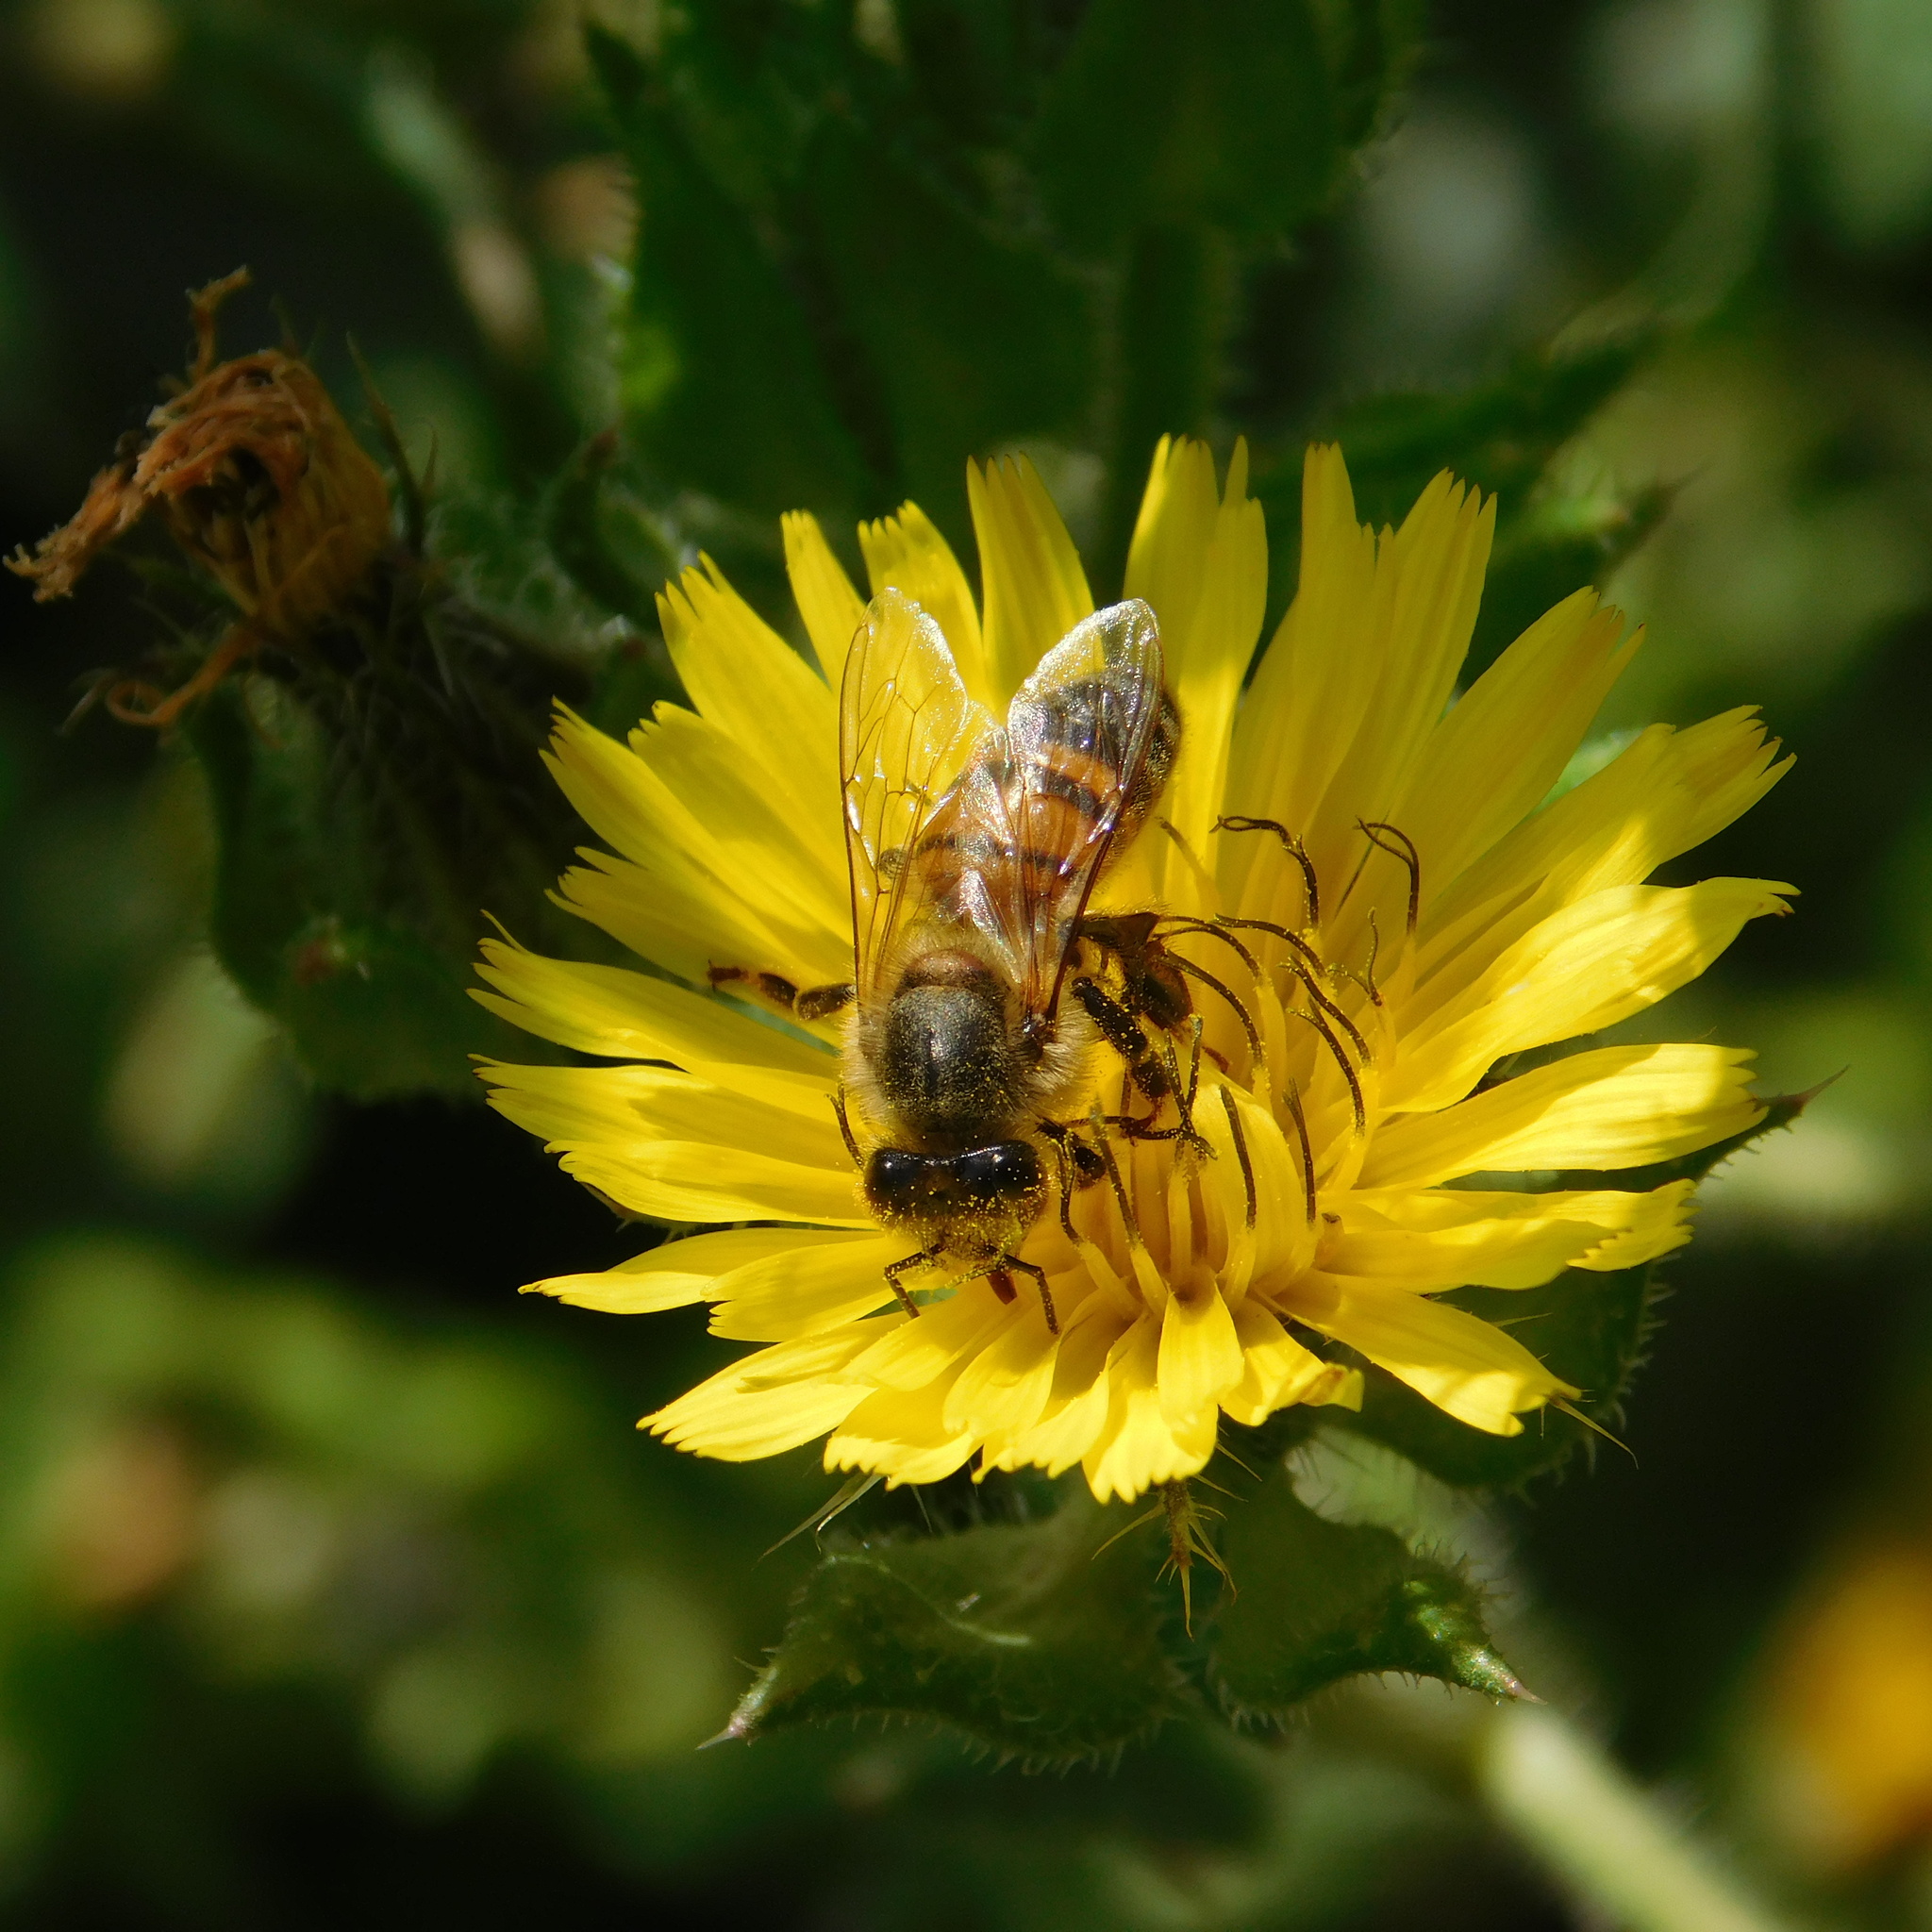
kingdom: Animalia
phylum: Arthropoda
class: Insecta
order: Hymenoptera
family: Apidae
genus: Apis
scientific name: Apis mellifera
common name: Honey bee
